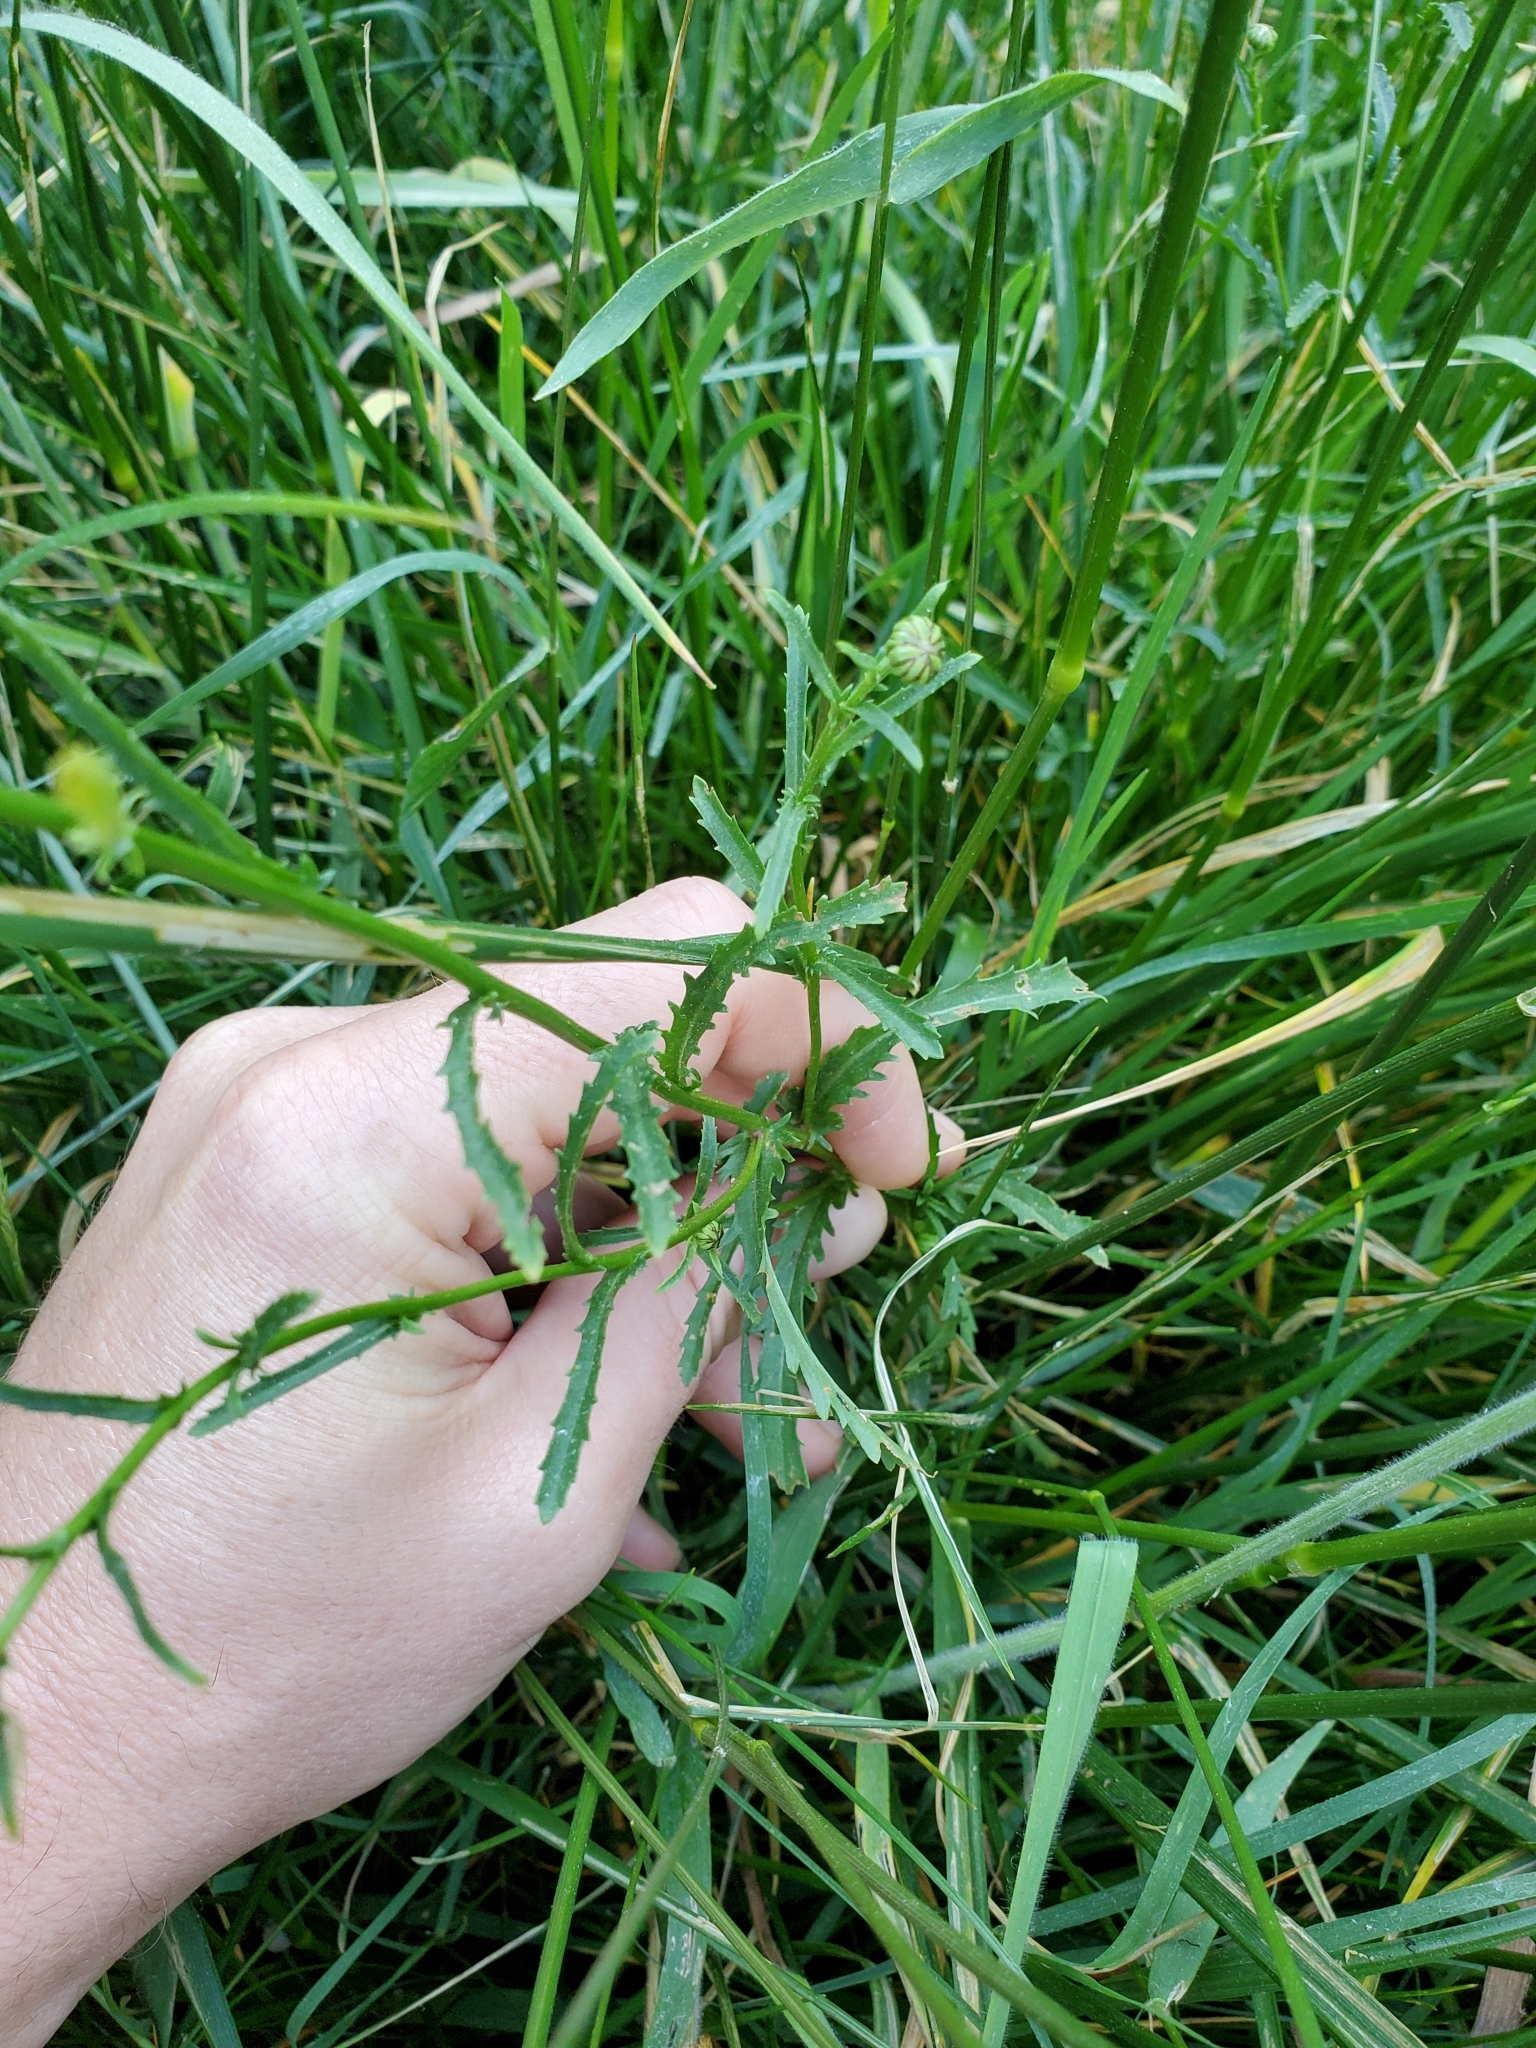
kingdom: Plantae
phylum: Tracheophyta
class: Magnoliopsida
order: Asterales
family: Asteraceae
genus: Leucanthemum
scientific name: Leucanthemum vulgare
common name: Oxeye daisy
